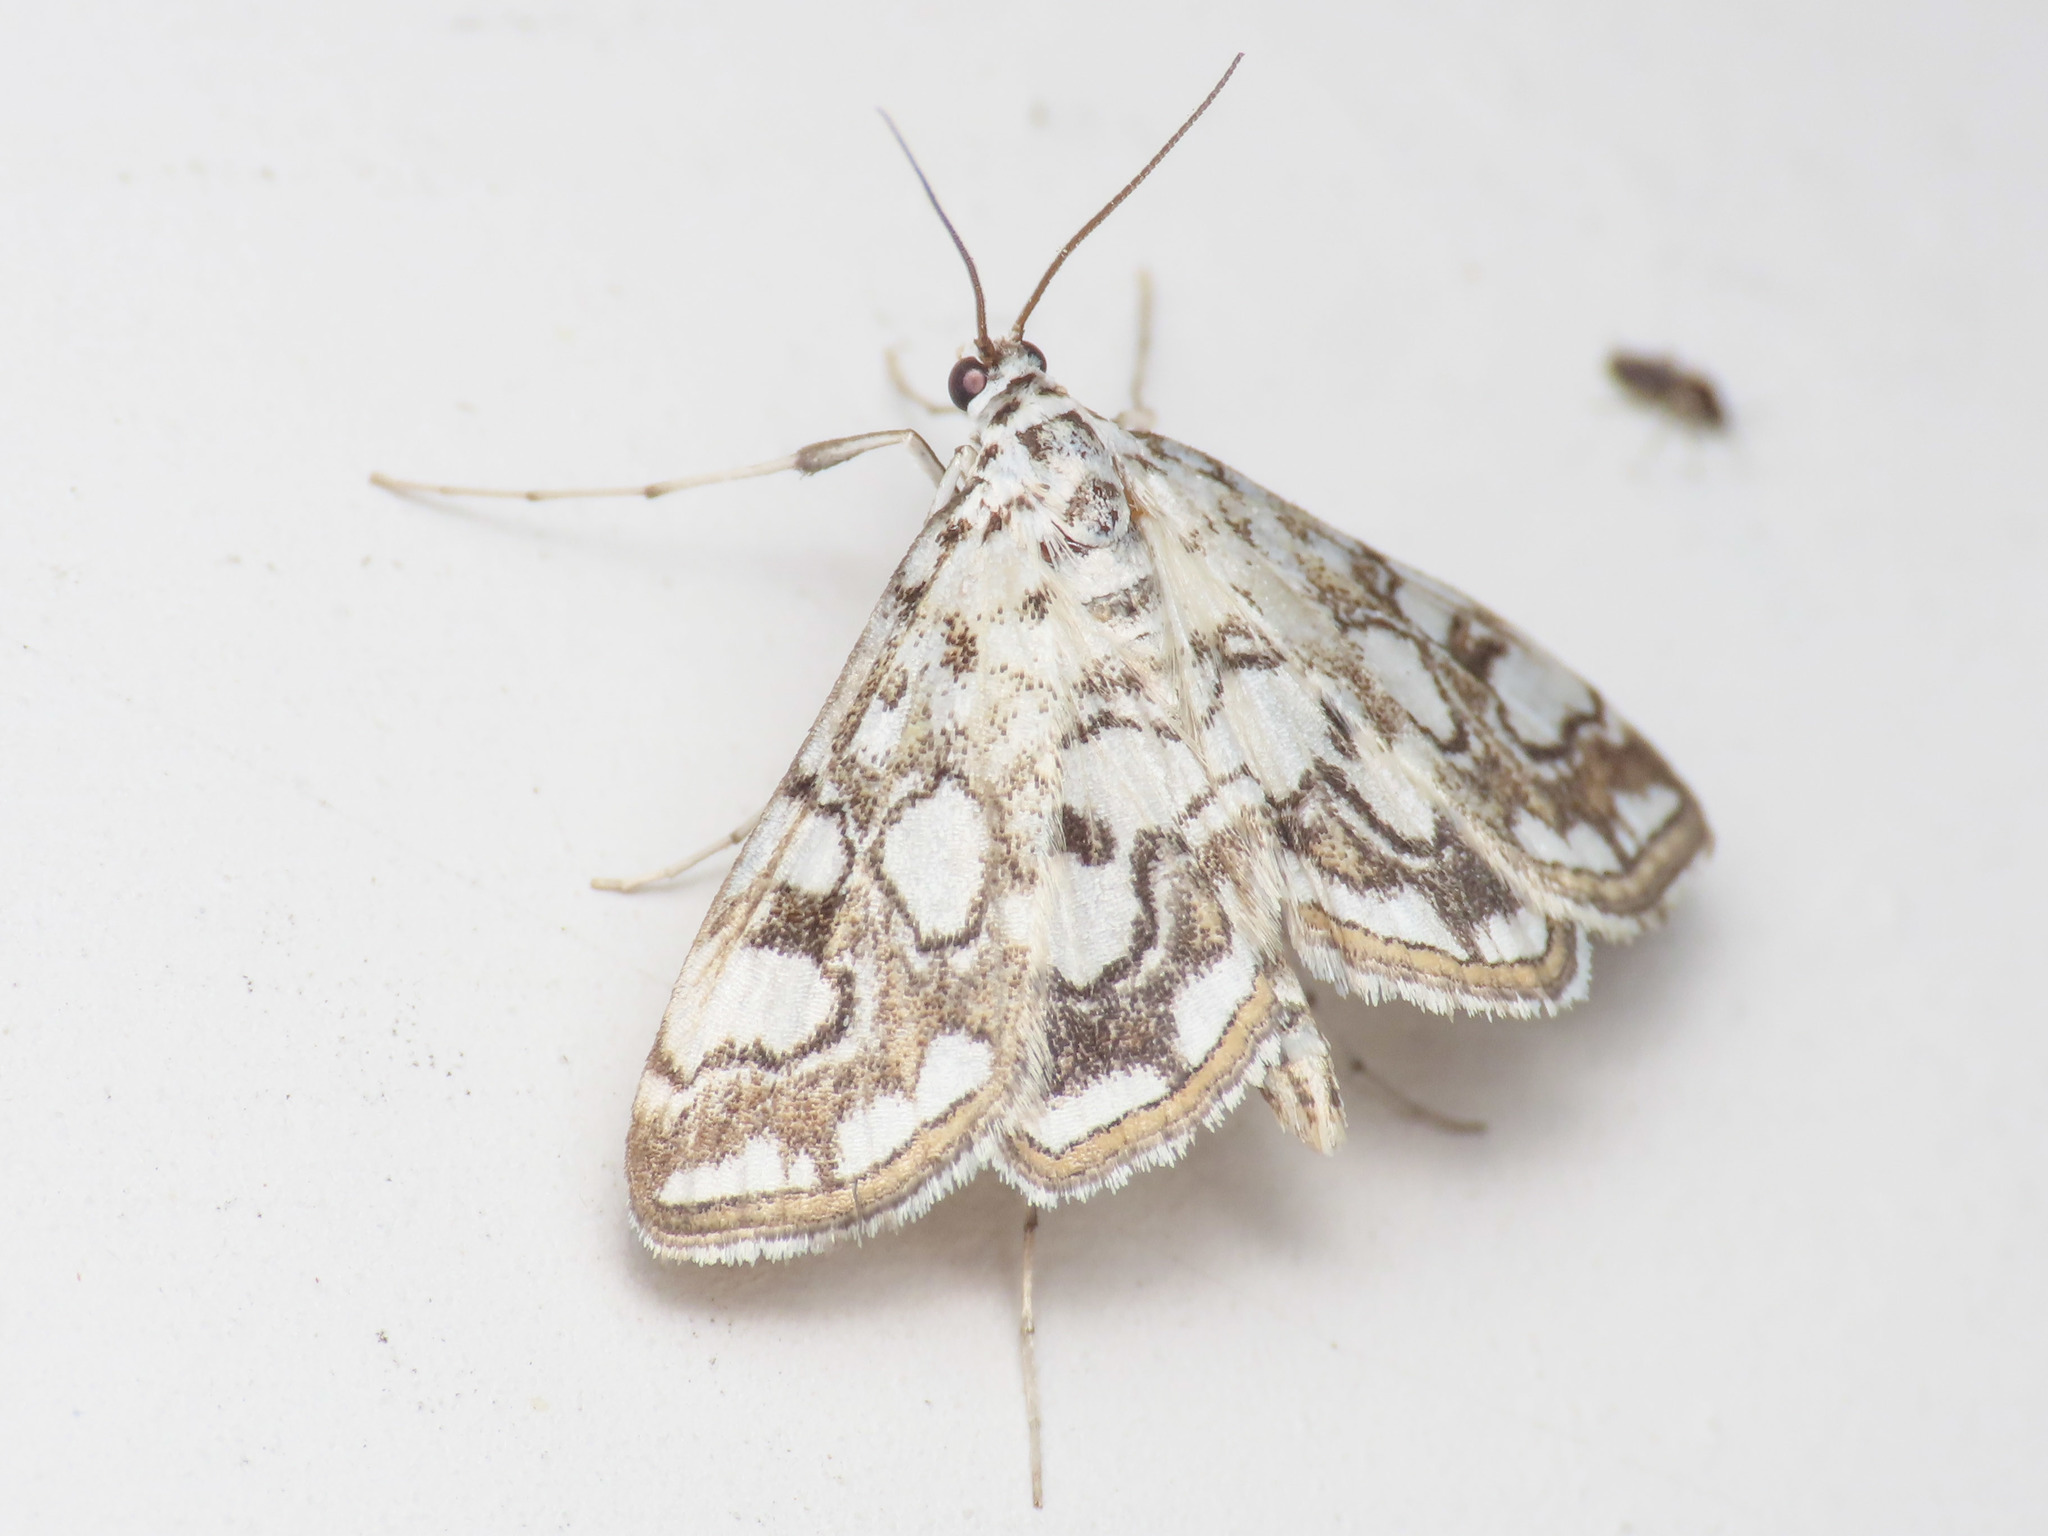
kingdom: Animalia
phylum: Arthropoda
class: Insecta
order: Lepidoptera
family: Crambidae
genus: Elophila
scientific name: Elophila nymphaeata
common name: Brown china-mark
